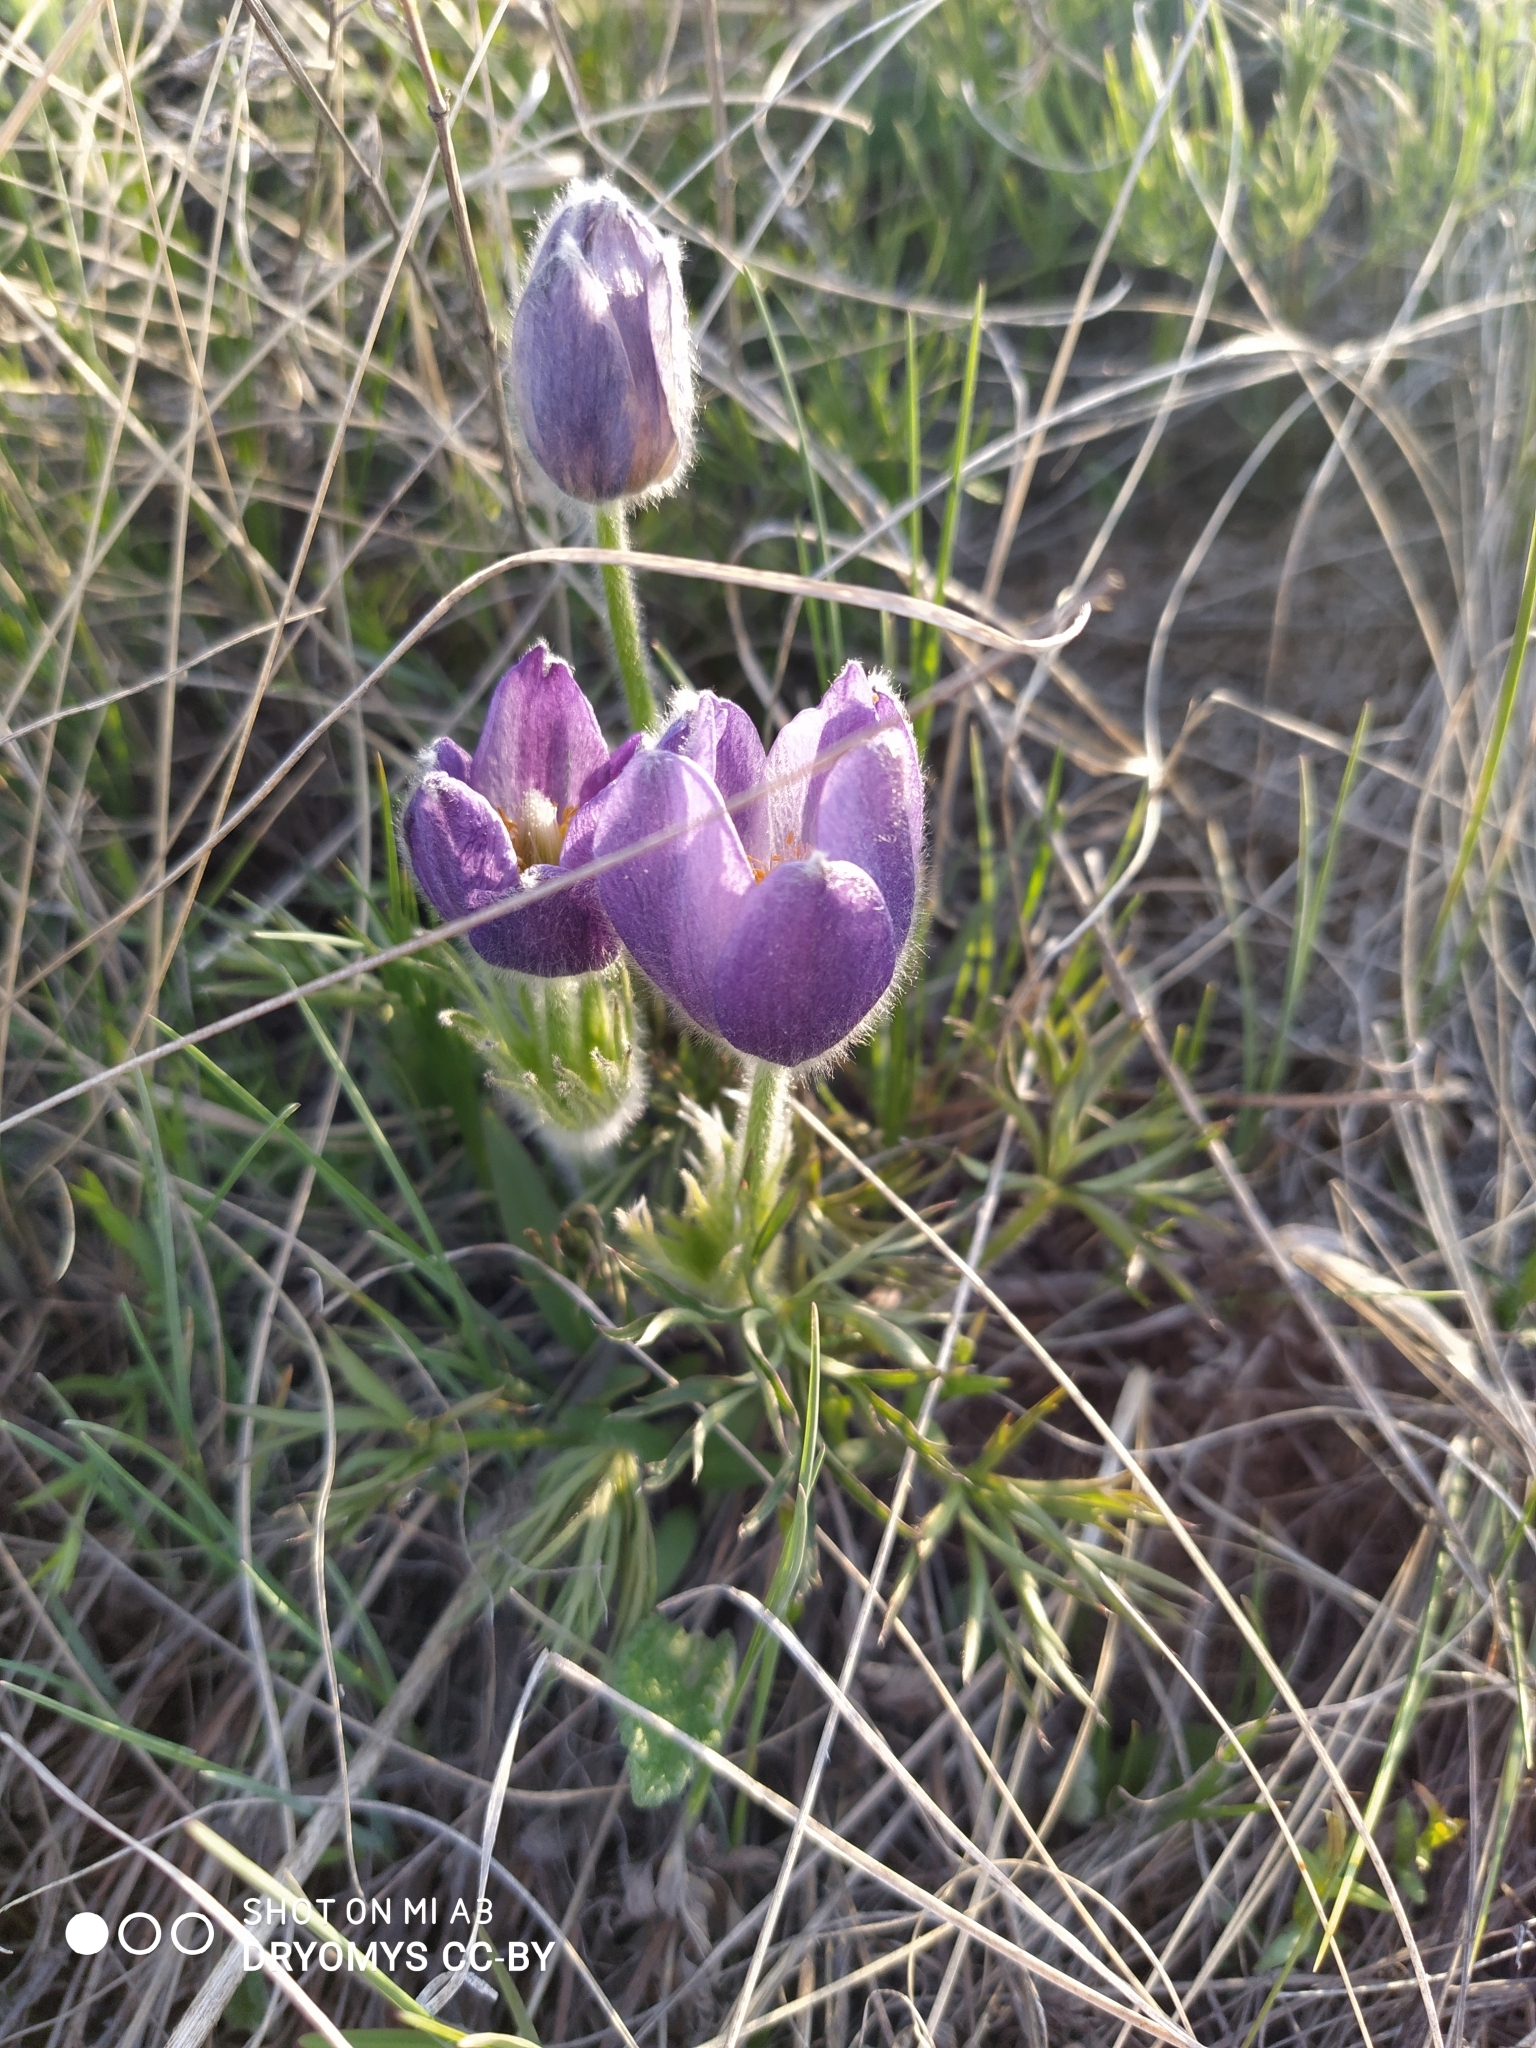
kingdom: Plantae
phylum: Tracheophyta
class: Magnoliopsida
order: Ranunculales
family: Ranunculaceae
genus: Pulsatilla
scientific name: Pulsatilla patens
